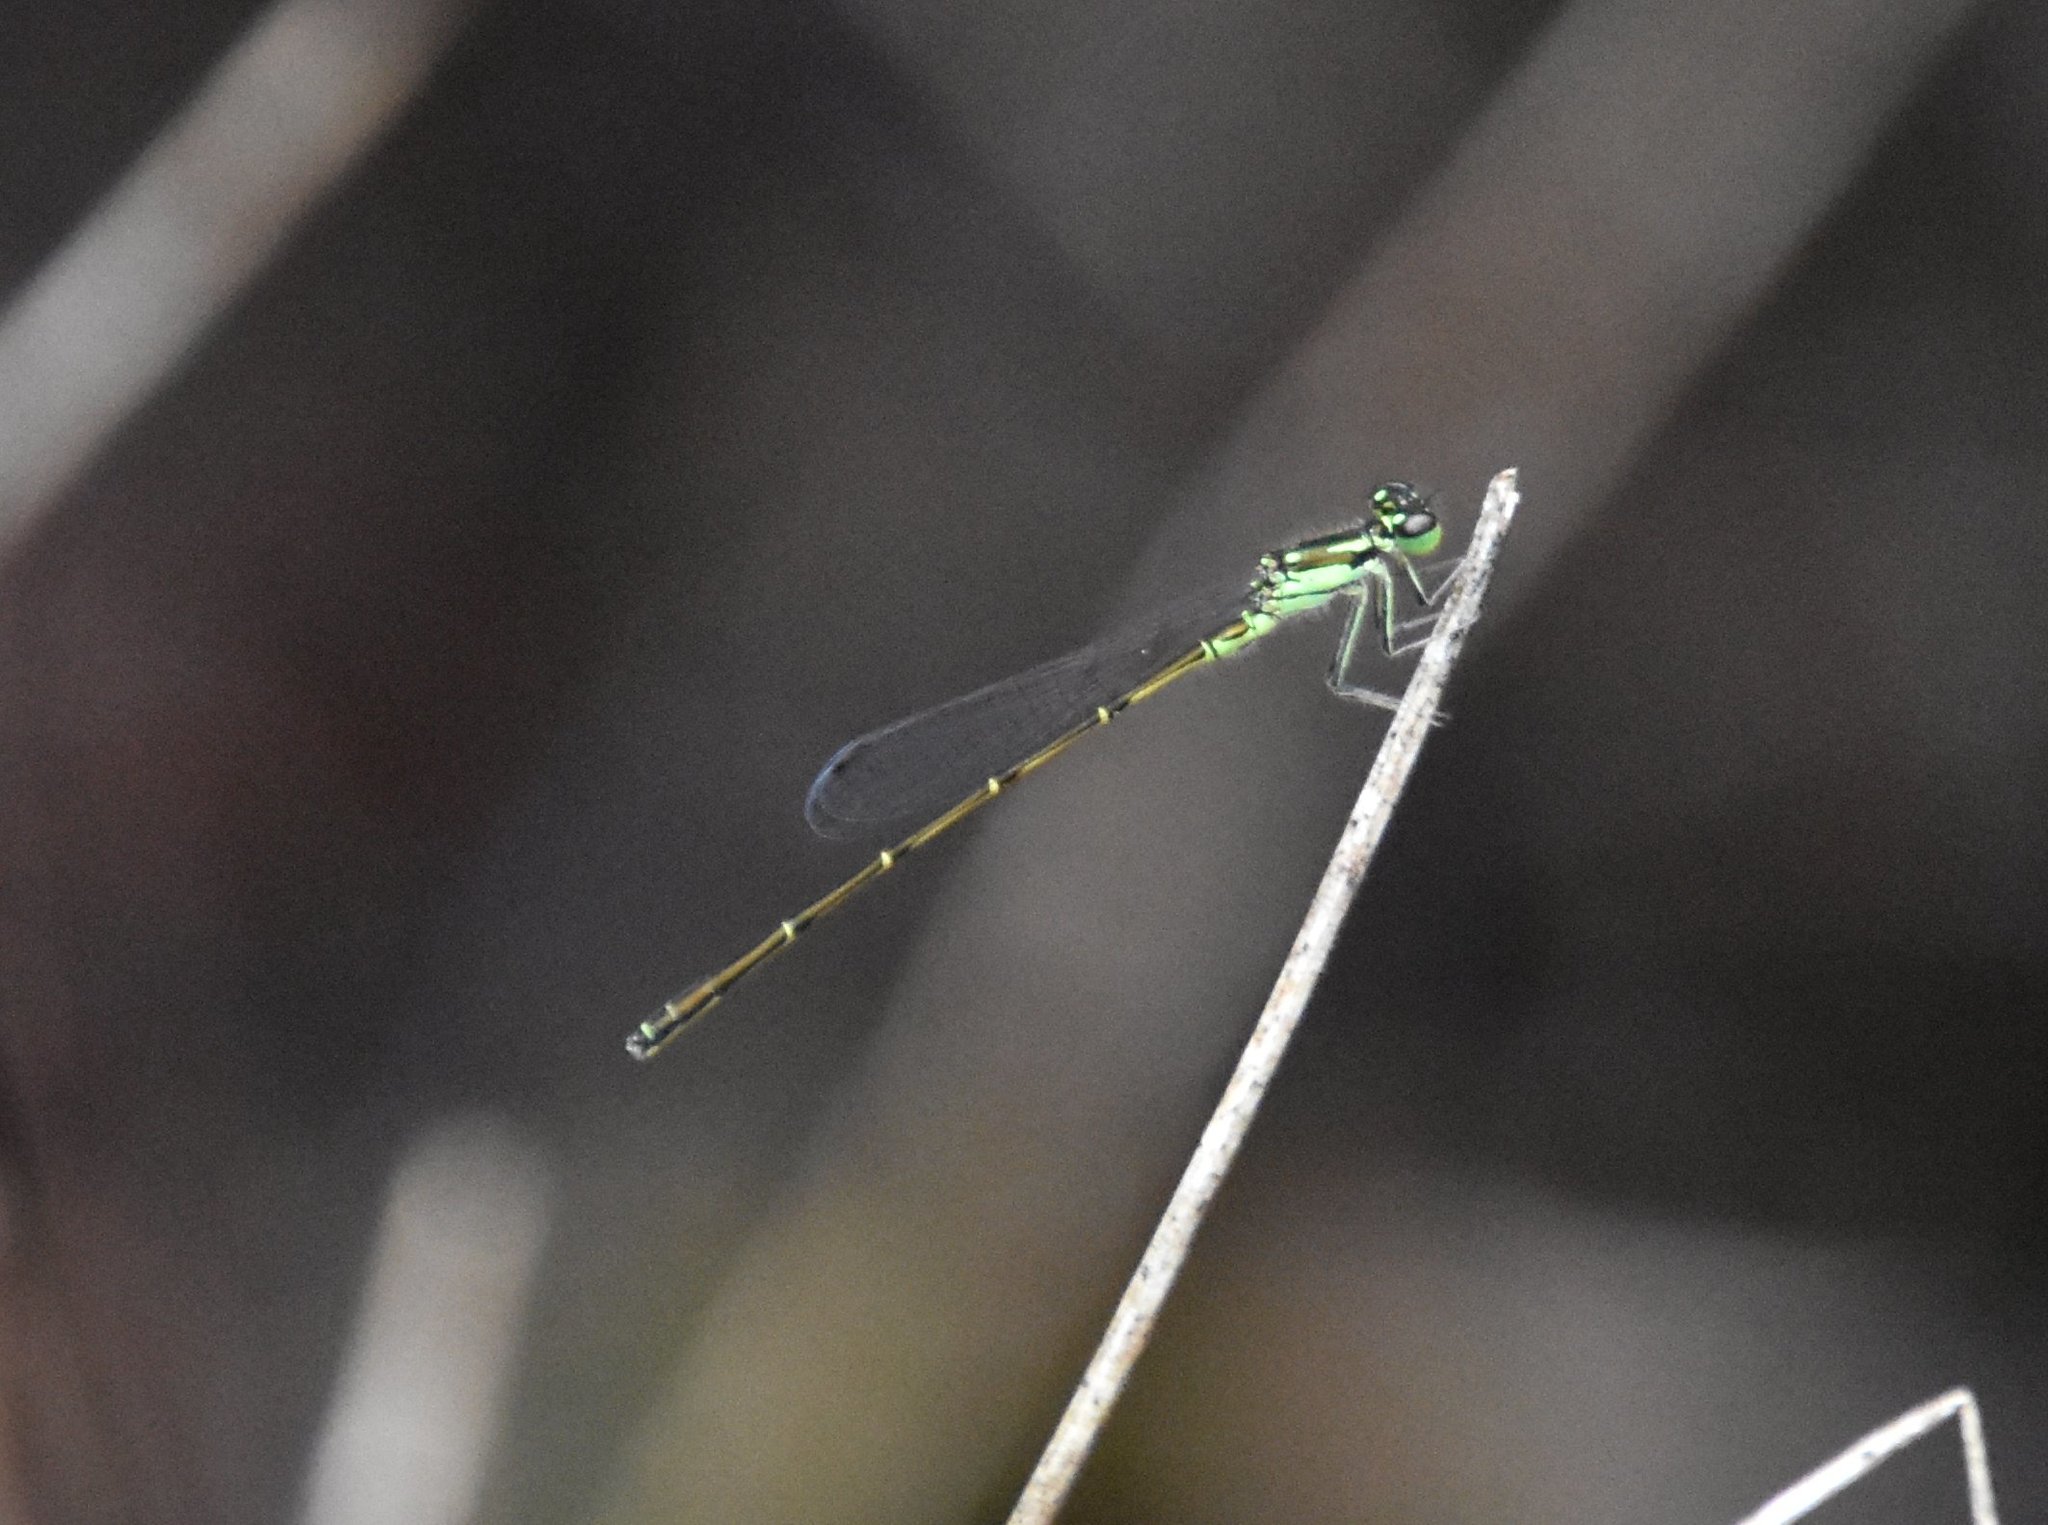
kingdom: Animalia
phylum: Arthropoda
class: Insecta
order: Odonata
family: Coenagrionidae
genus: Ischnura
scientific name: Ischnura posita
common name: Fragile forktail
